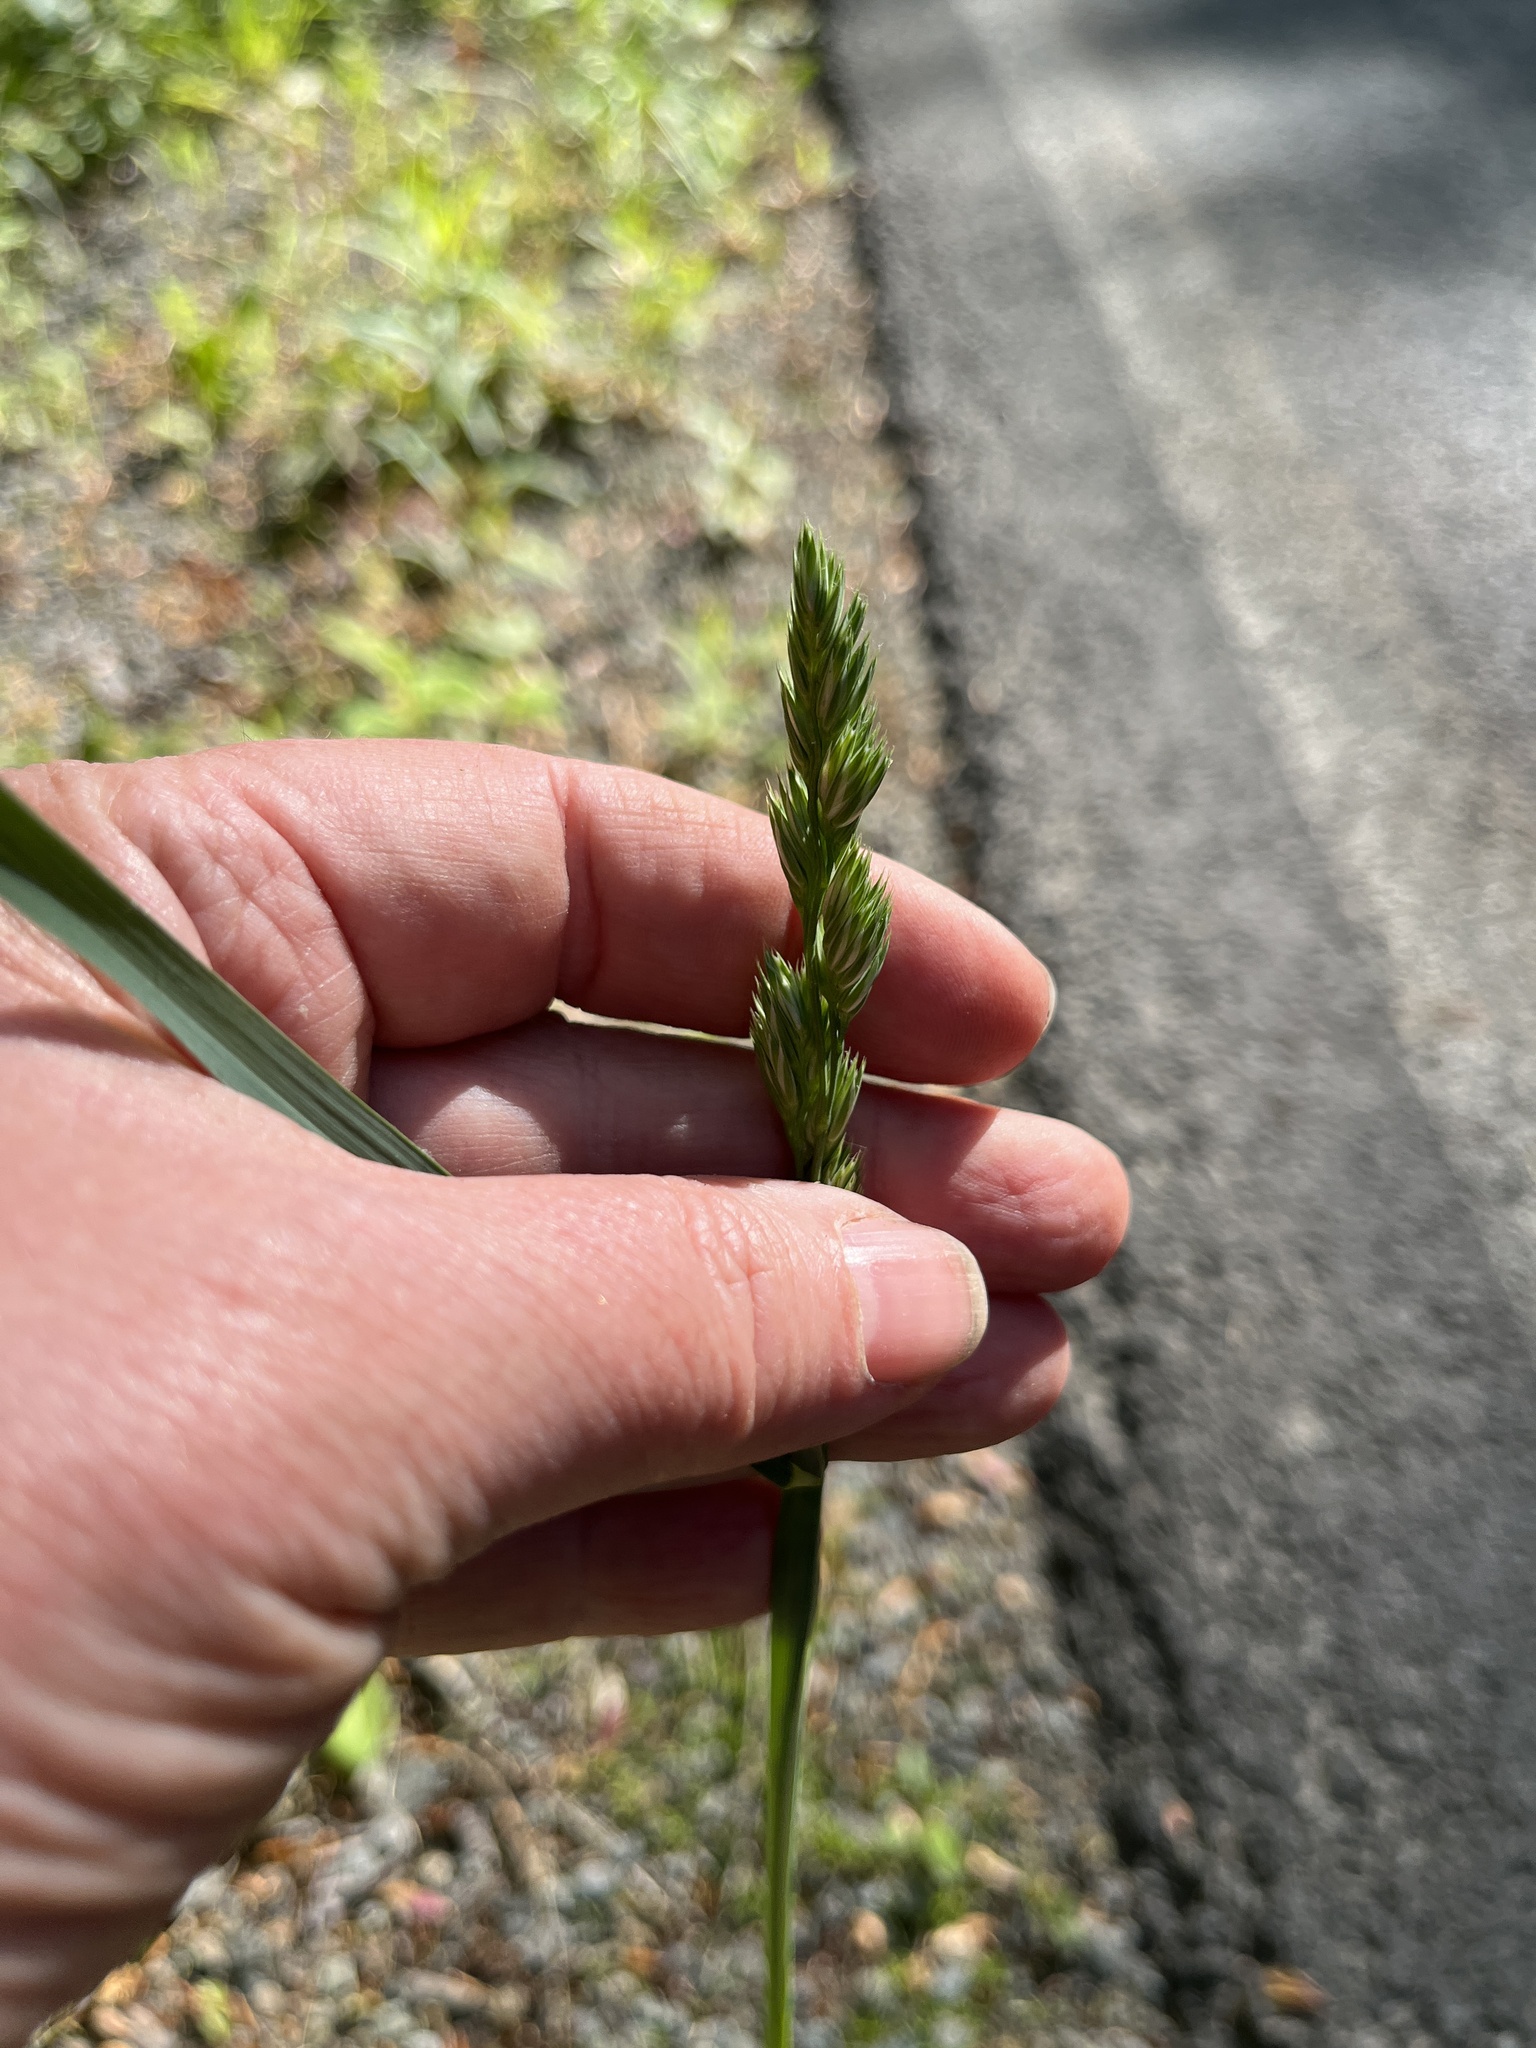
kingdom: Plantae
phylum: Tracheophyta
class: Liliopsida
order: Poales
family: Poaceae
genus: Dactylis
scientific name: Dactylis glomerata
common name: Orchardgrass
